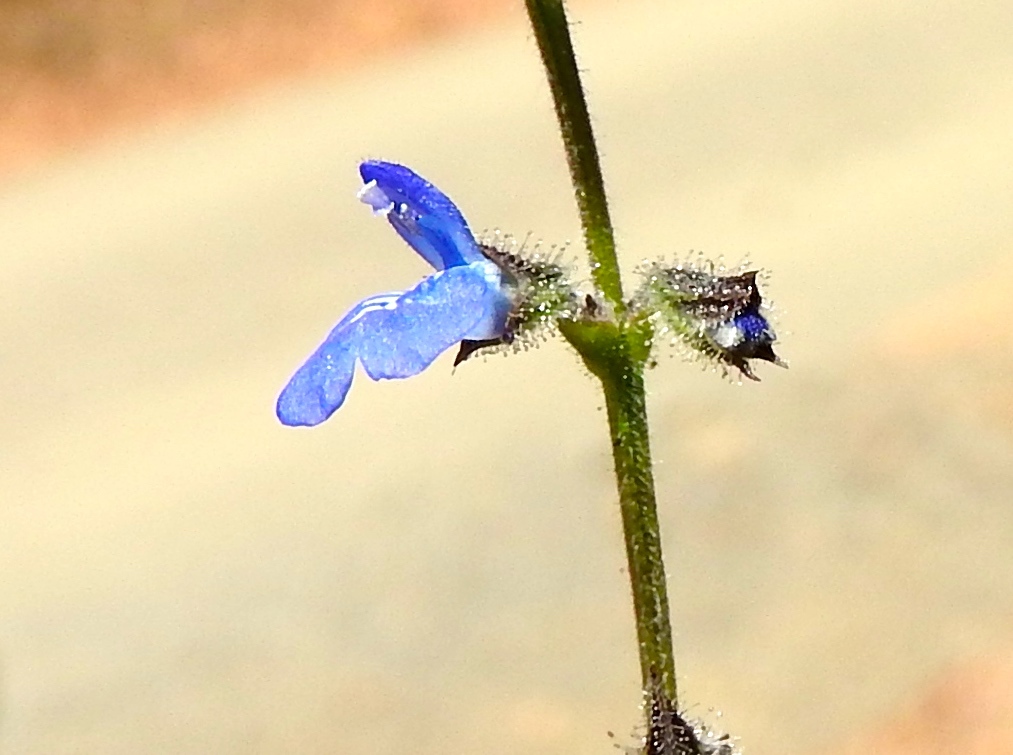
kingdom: Plantae
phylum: Tracheophyta
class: Magnoliopsida
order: Lamiales
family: Lamiaceae
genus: Salvia
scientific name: Salvia misella
